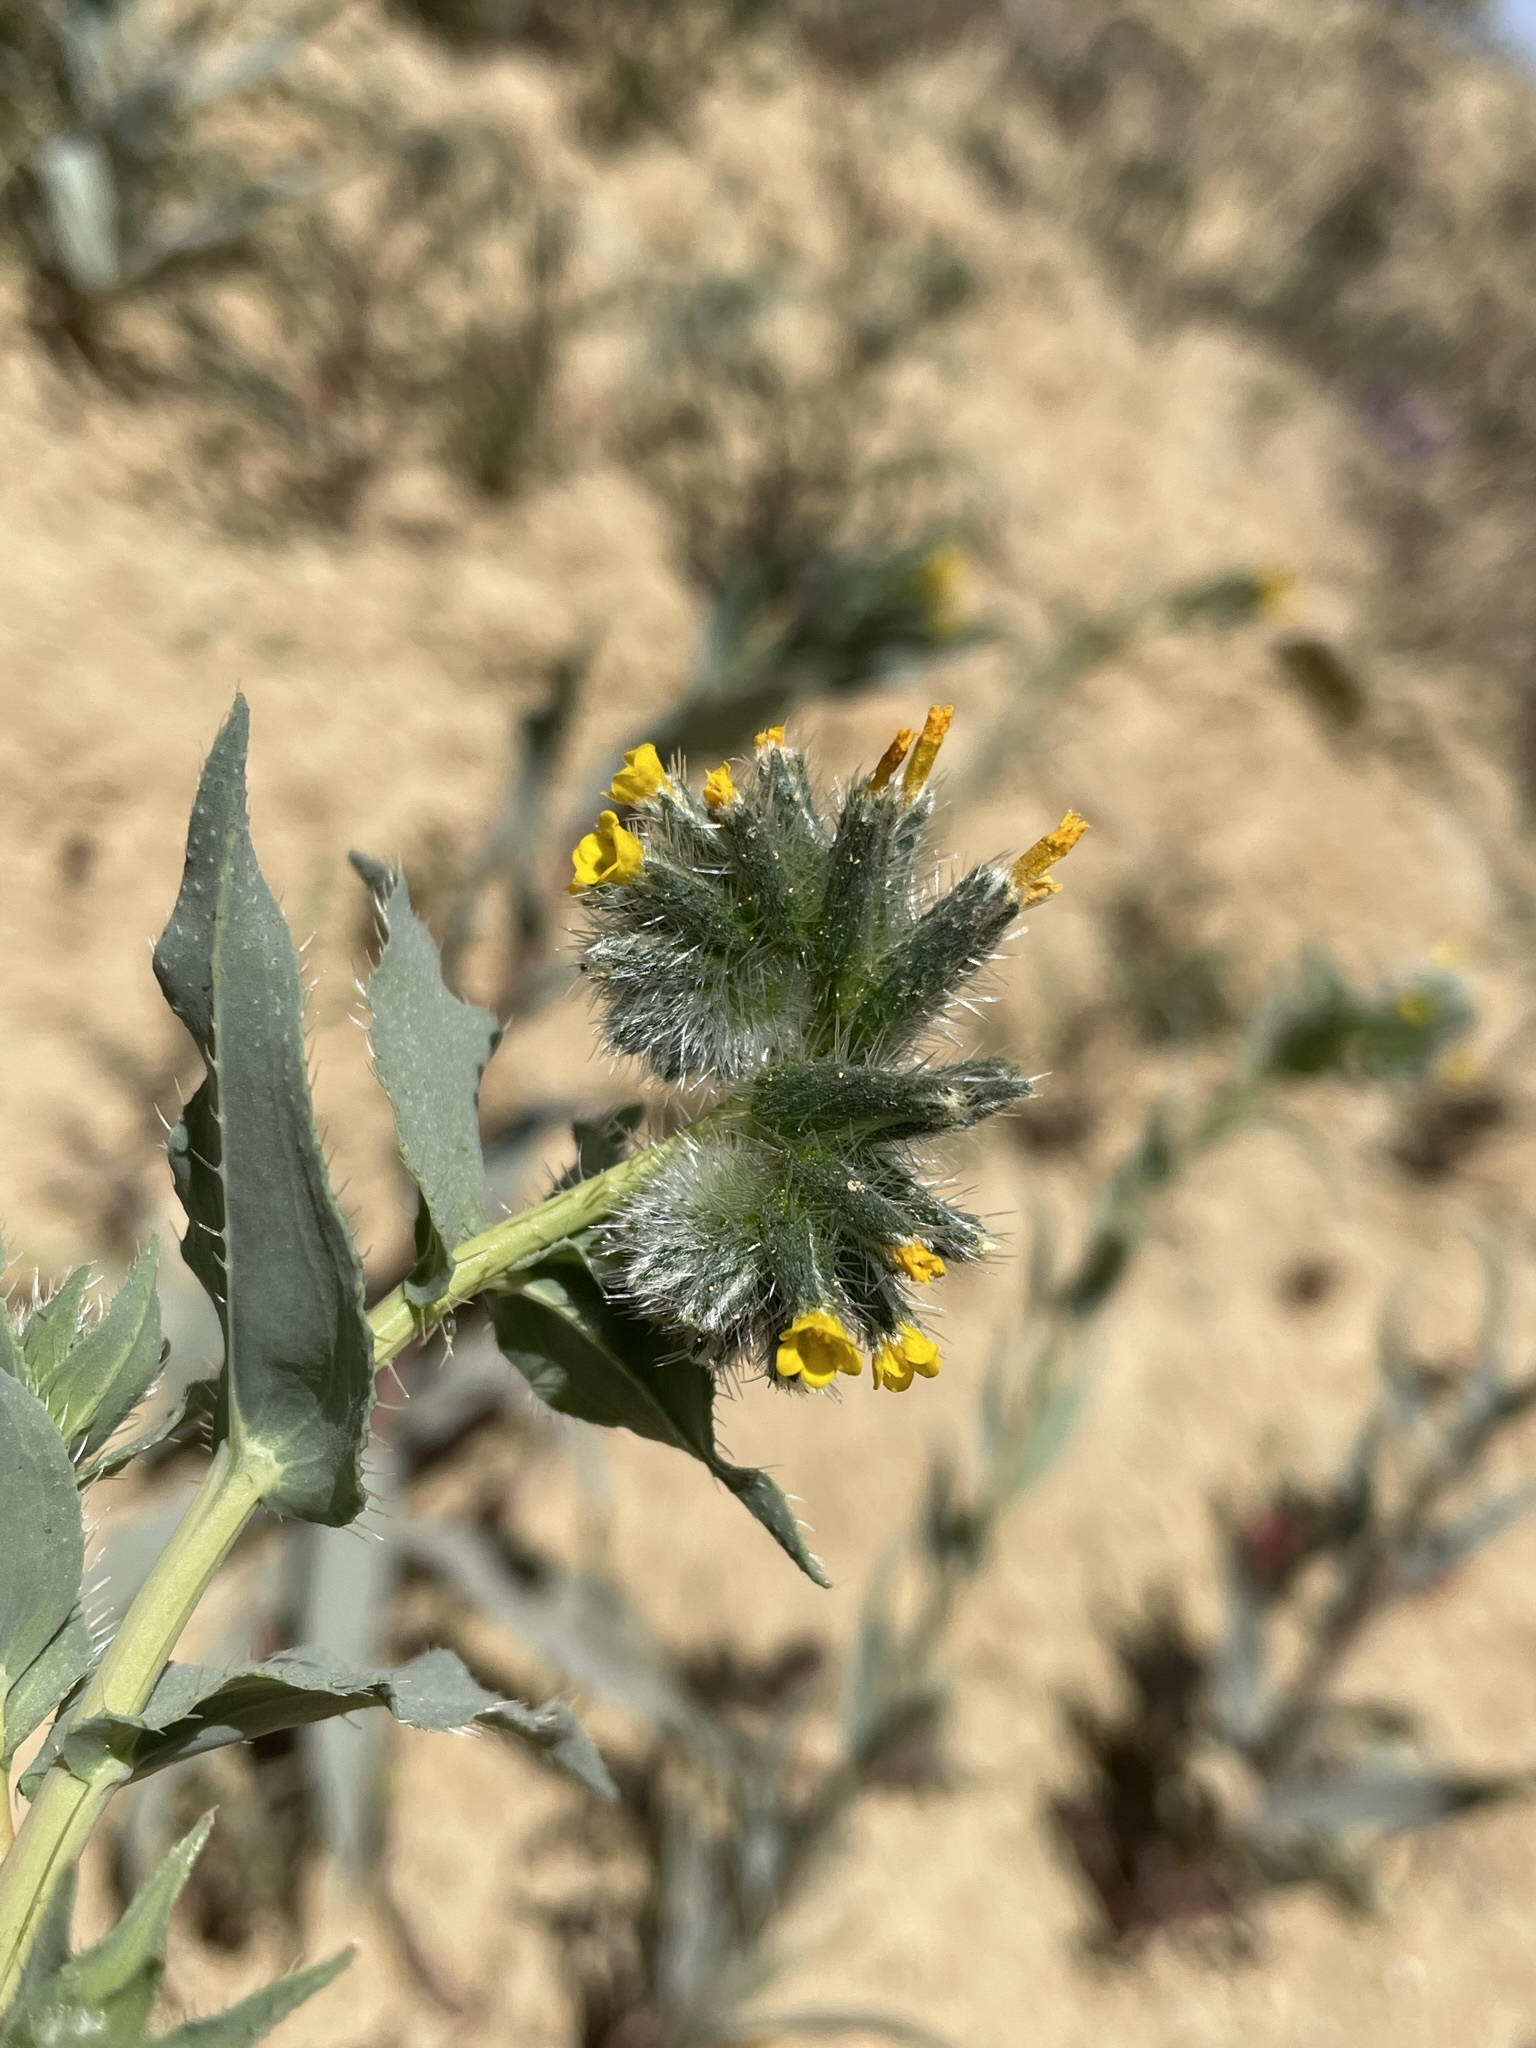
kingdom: Plantae
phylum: Tracheophyta
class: Magnoliopsida
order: Boraginales
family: Boraginaceae
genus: Amsinckia
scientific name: Amsinckia vernicosa
